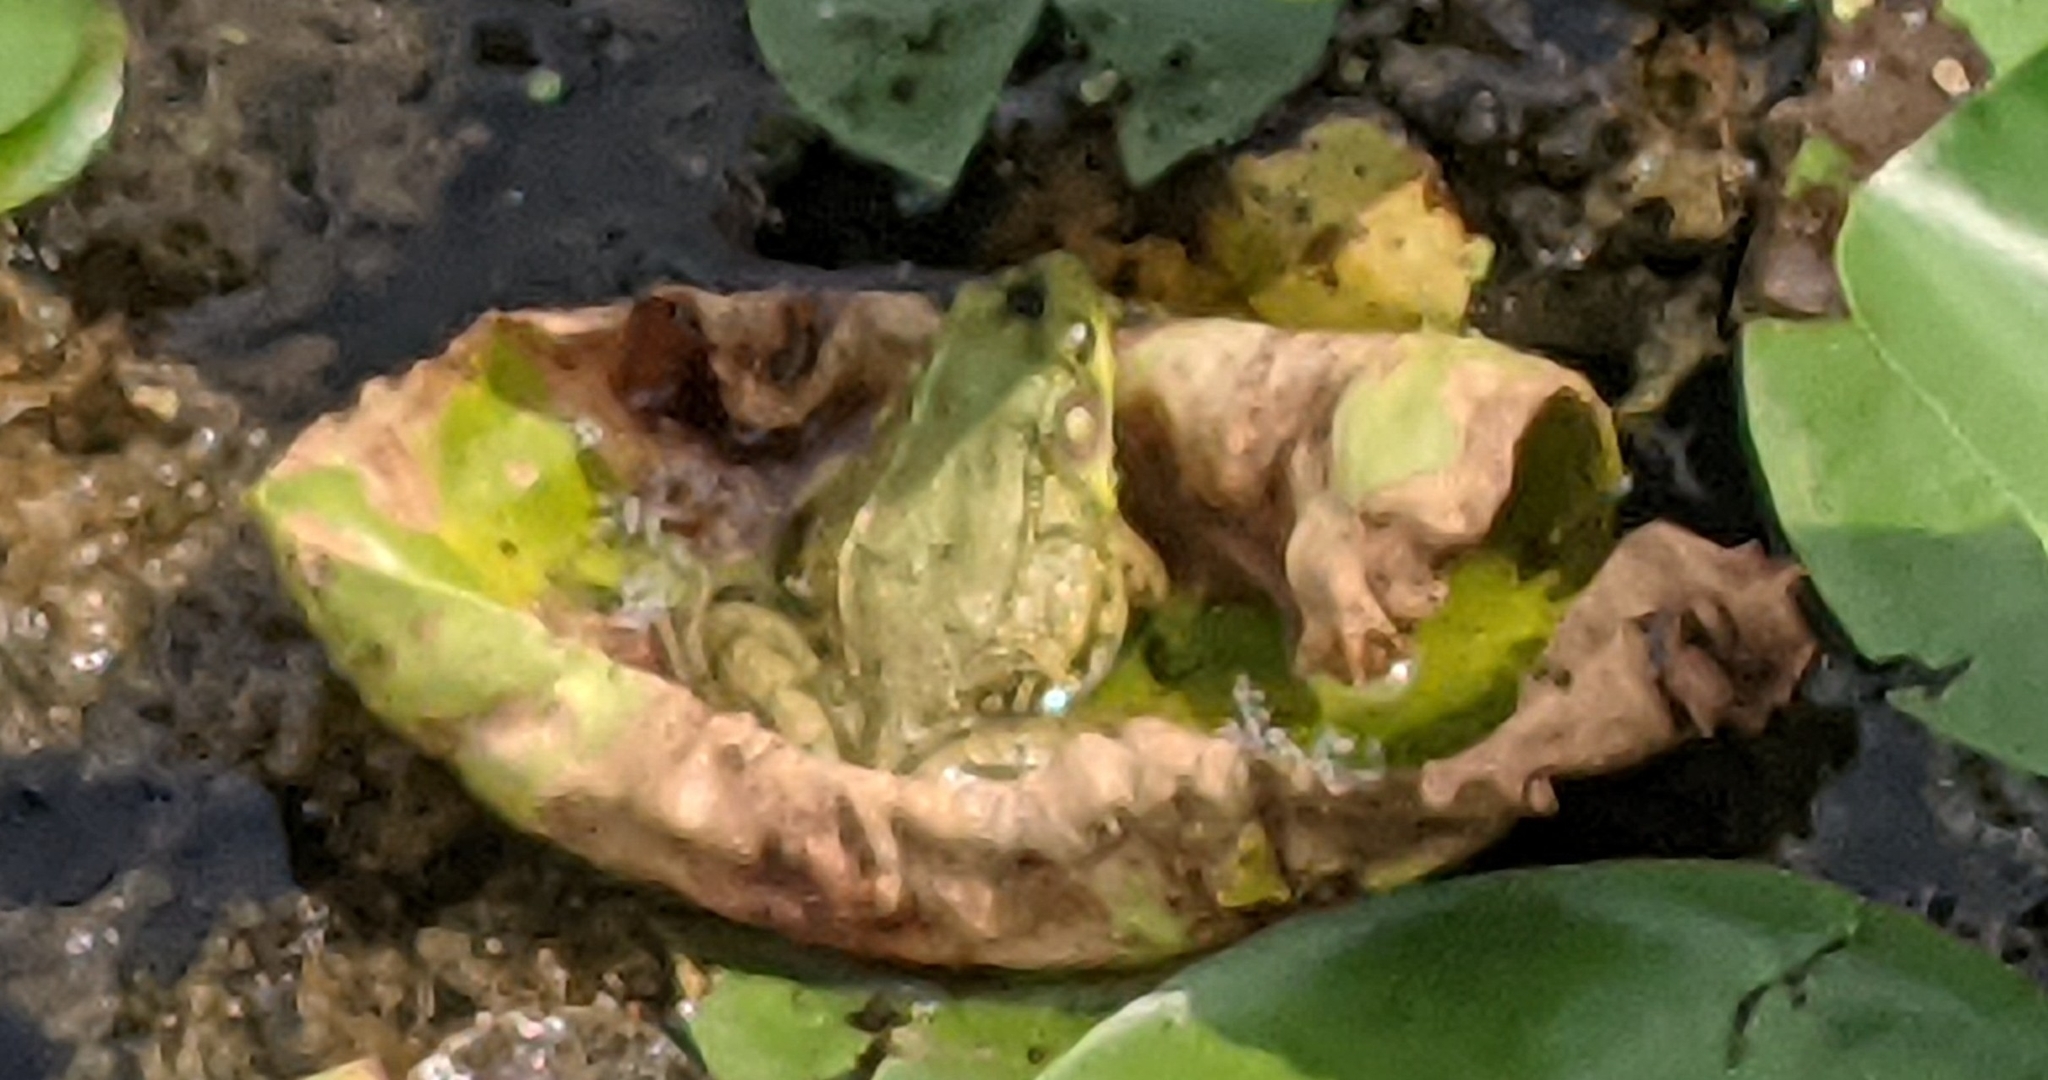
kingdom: Animalia
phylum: Chordata
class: Amphibia
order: Anura
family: Ranidae
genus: Lithobates
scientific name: Lithobates clamitans
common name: Green frog
